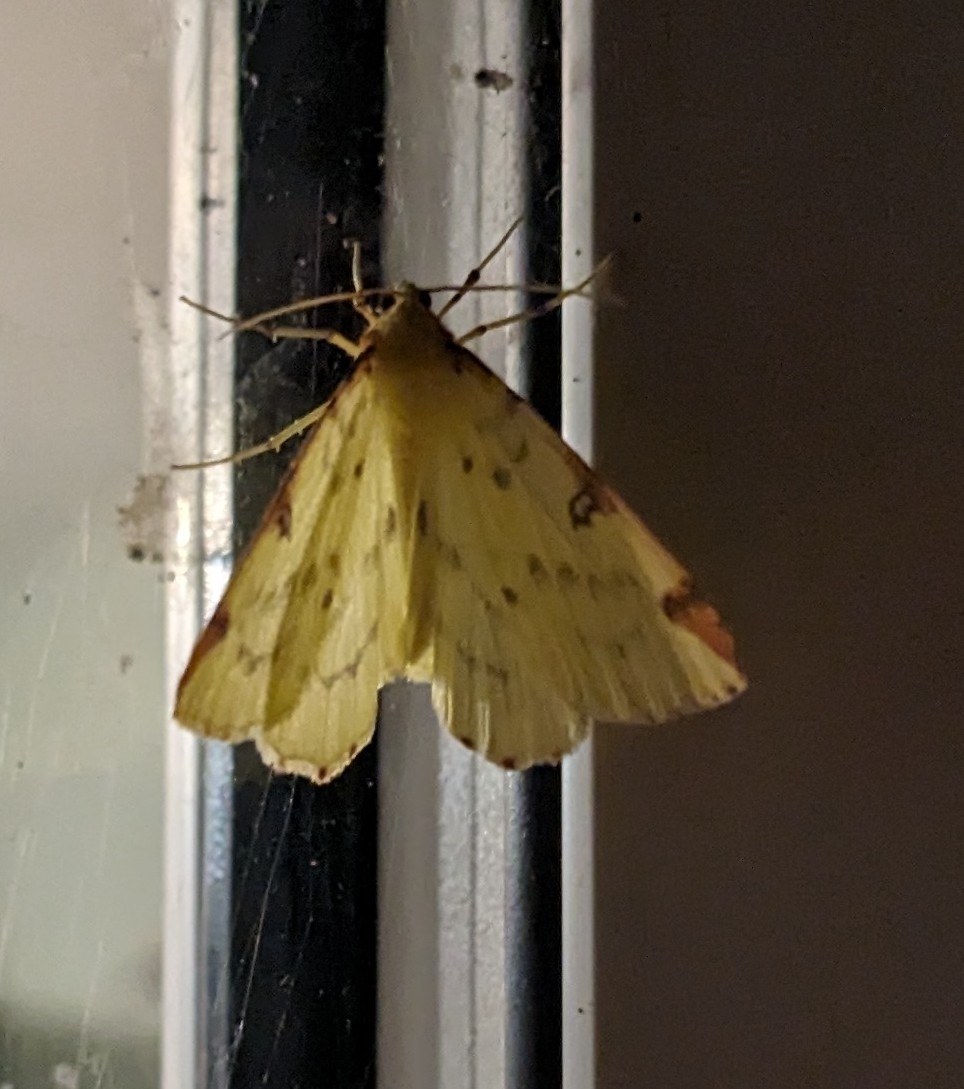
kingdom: Animalia
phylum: Arthropoda
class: Insecta
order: Lepidoptera
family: Geometridae
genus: Opisthograptis
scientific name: Opisthograptis luteolata
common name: Brimstone moth
